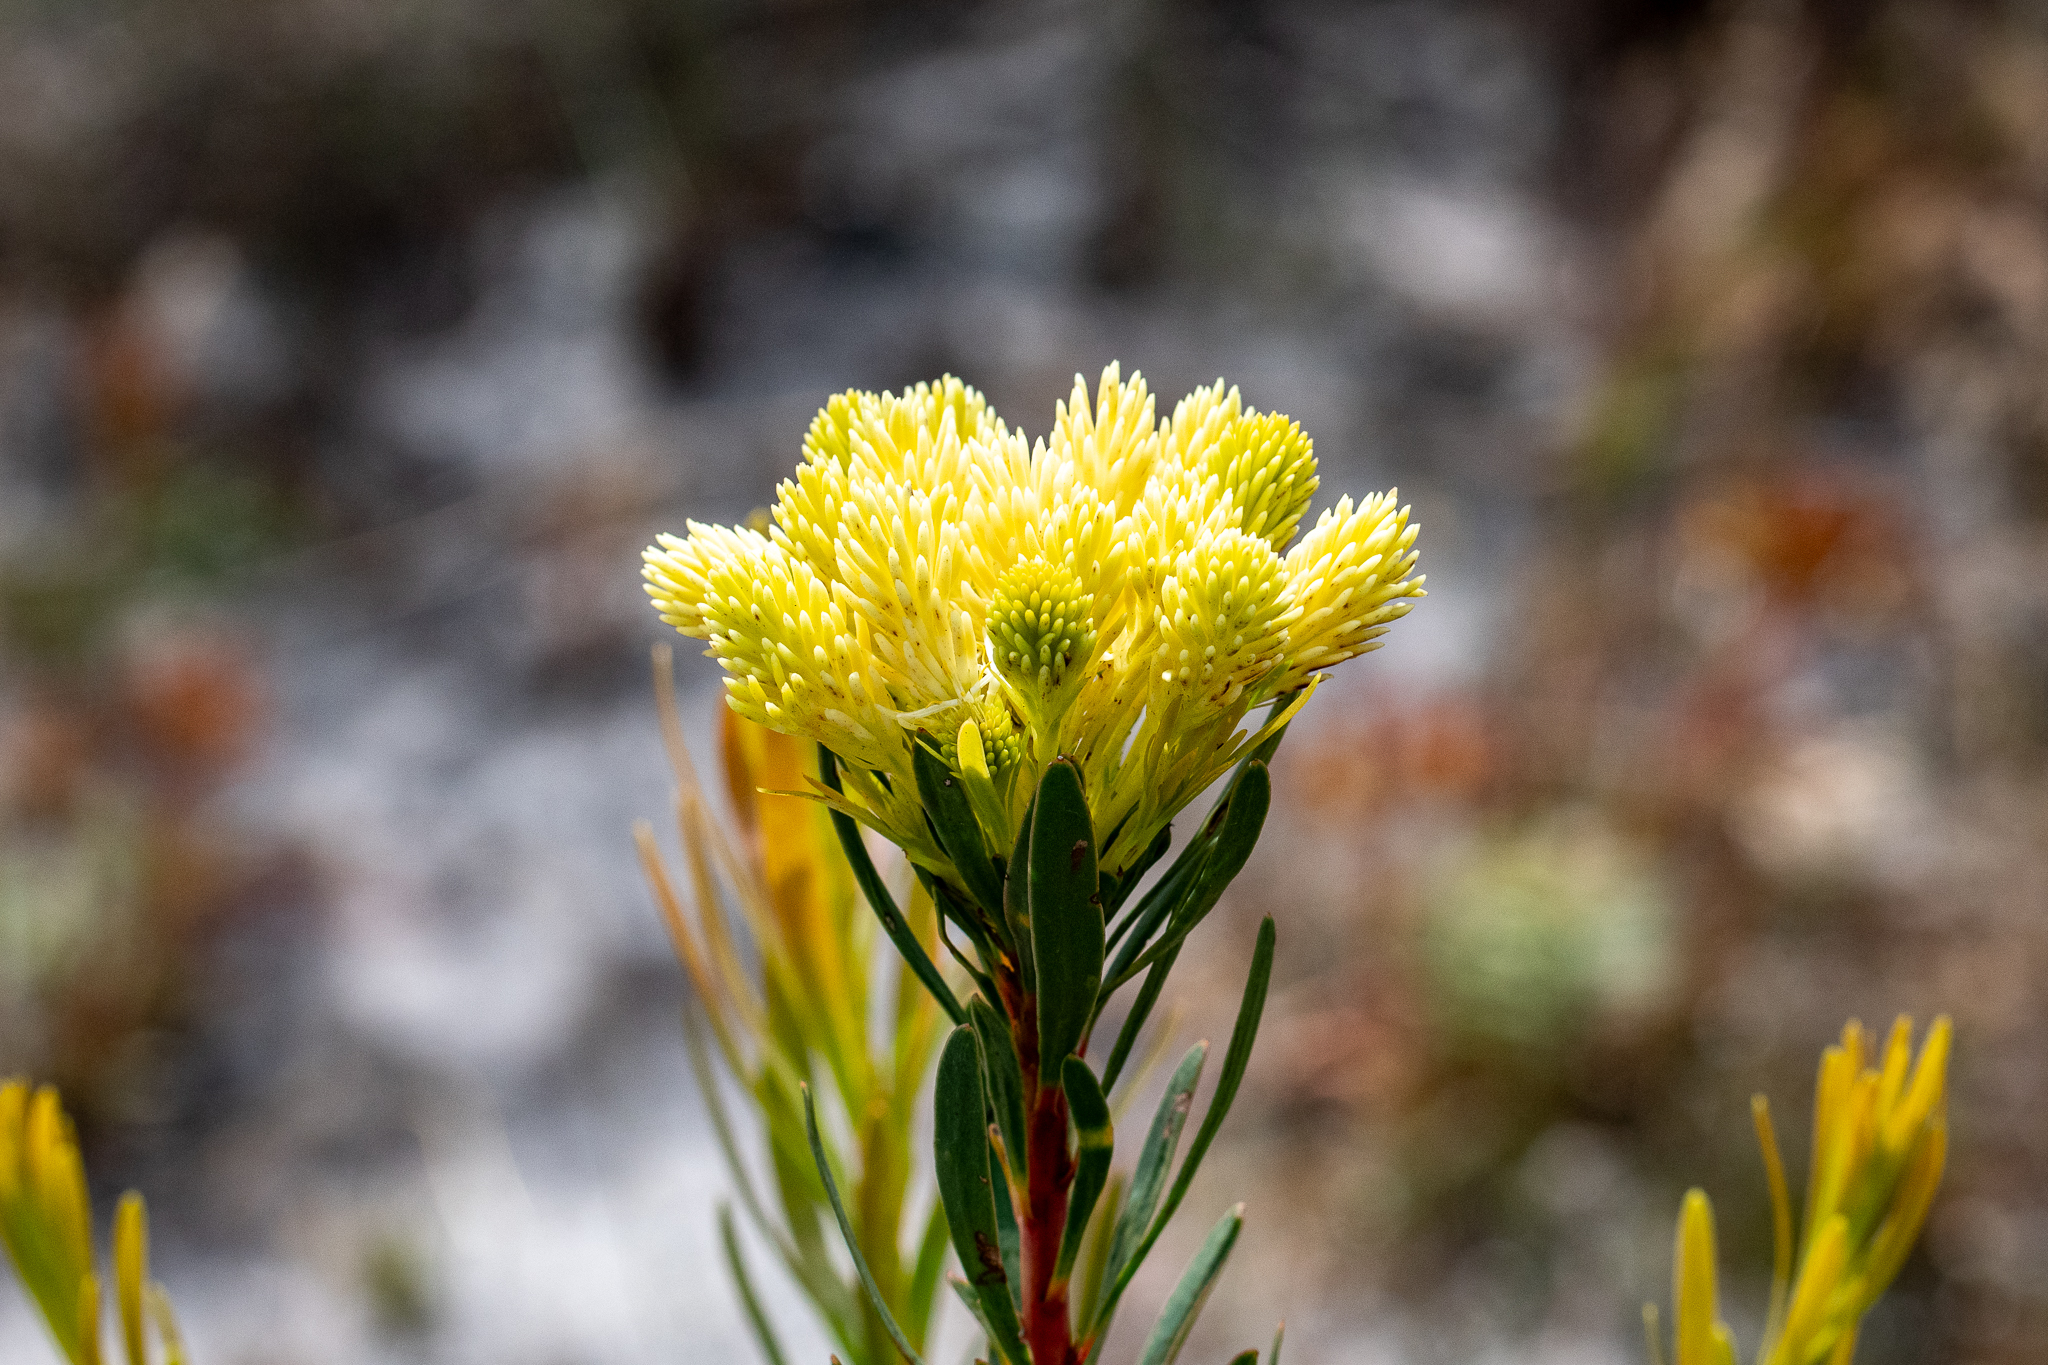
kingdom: Plantae
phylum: Tracheophyta
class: Magnoliopsida
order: Proteales
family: Proteaceae
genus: Aulax
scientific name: Aulax umbellata
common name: Broad-leaf featherbush
